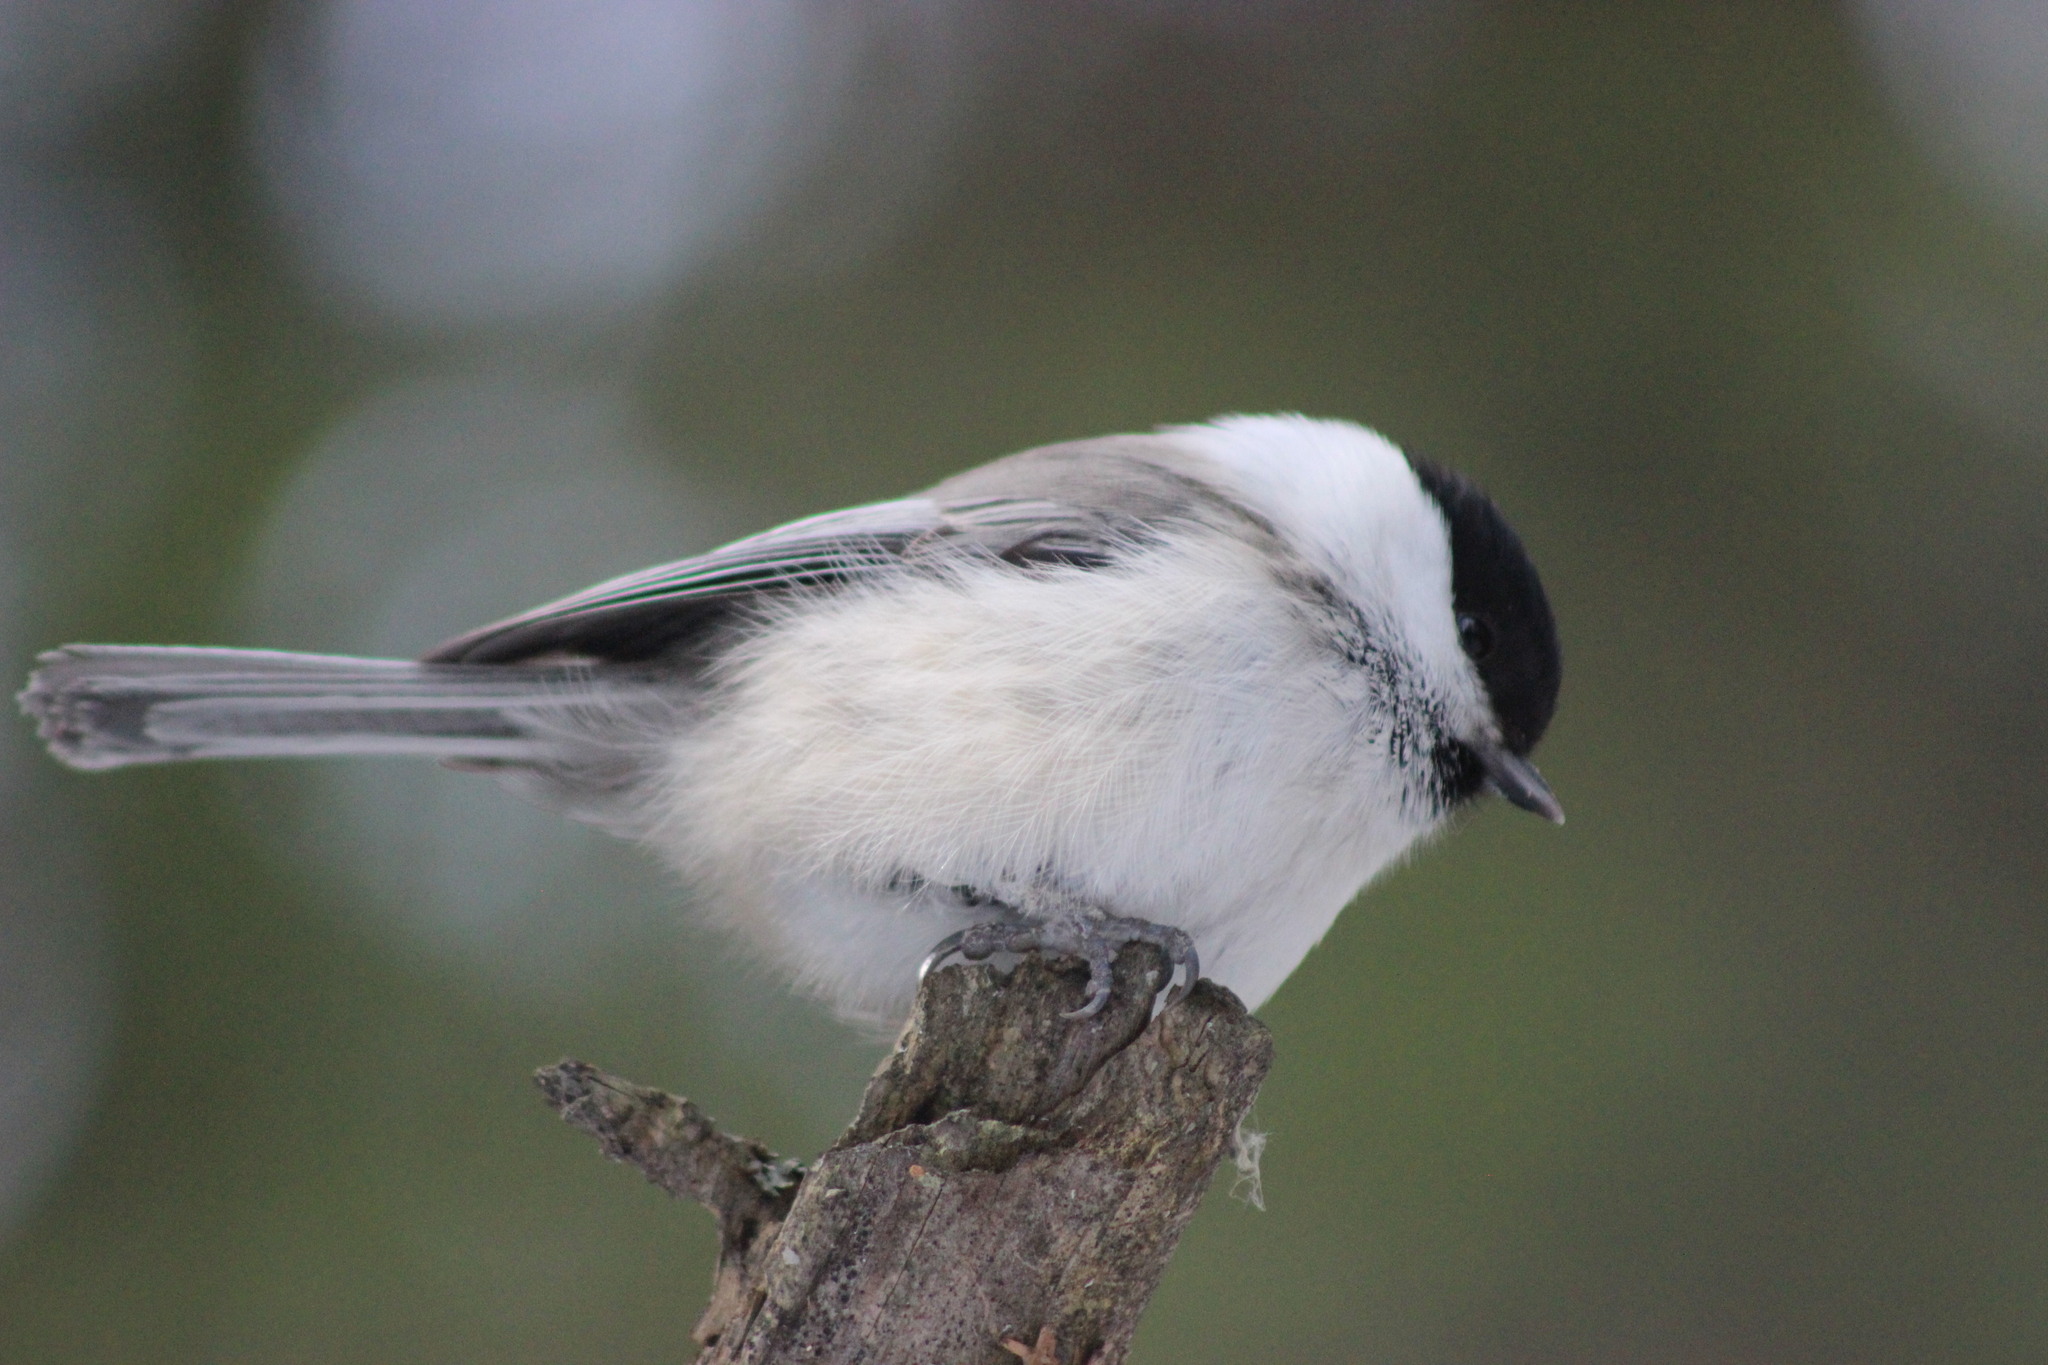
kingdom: Animalia
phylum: Chordata
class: Aves
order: Passeriformes
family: Paridae
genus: Poecile
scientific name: Poecile montanus
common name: Willow tit
